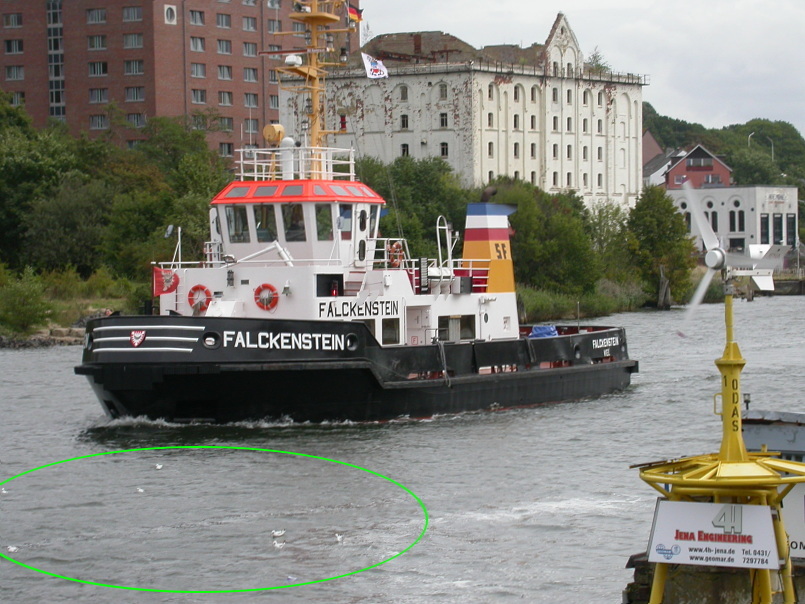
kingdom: Animalia
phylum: Chordata
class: Aves
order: Charadriiformes
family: Laridae
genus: Chroicocephalus
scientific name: Chroicocephalus ridibundus
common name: Black-headed gull
